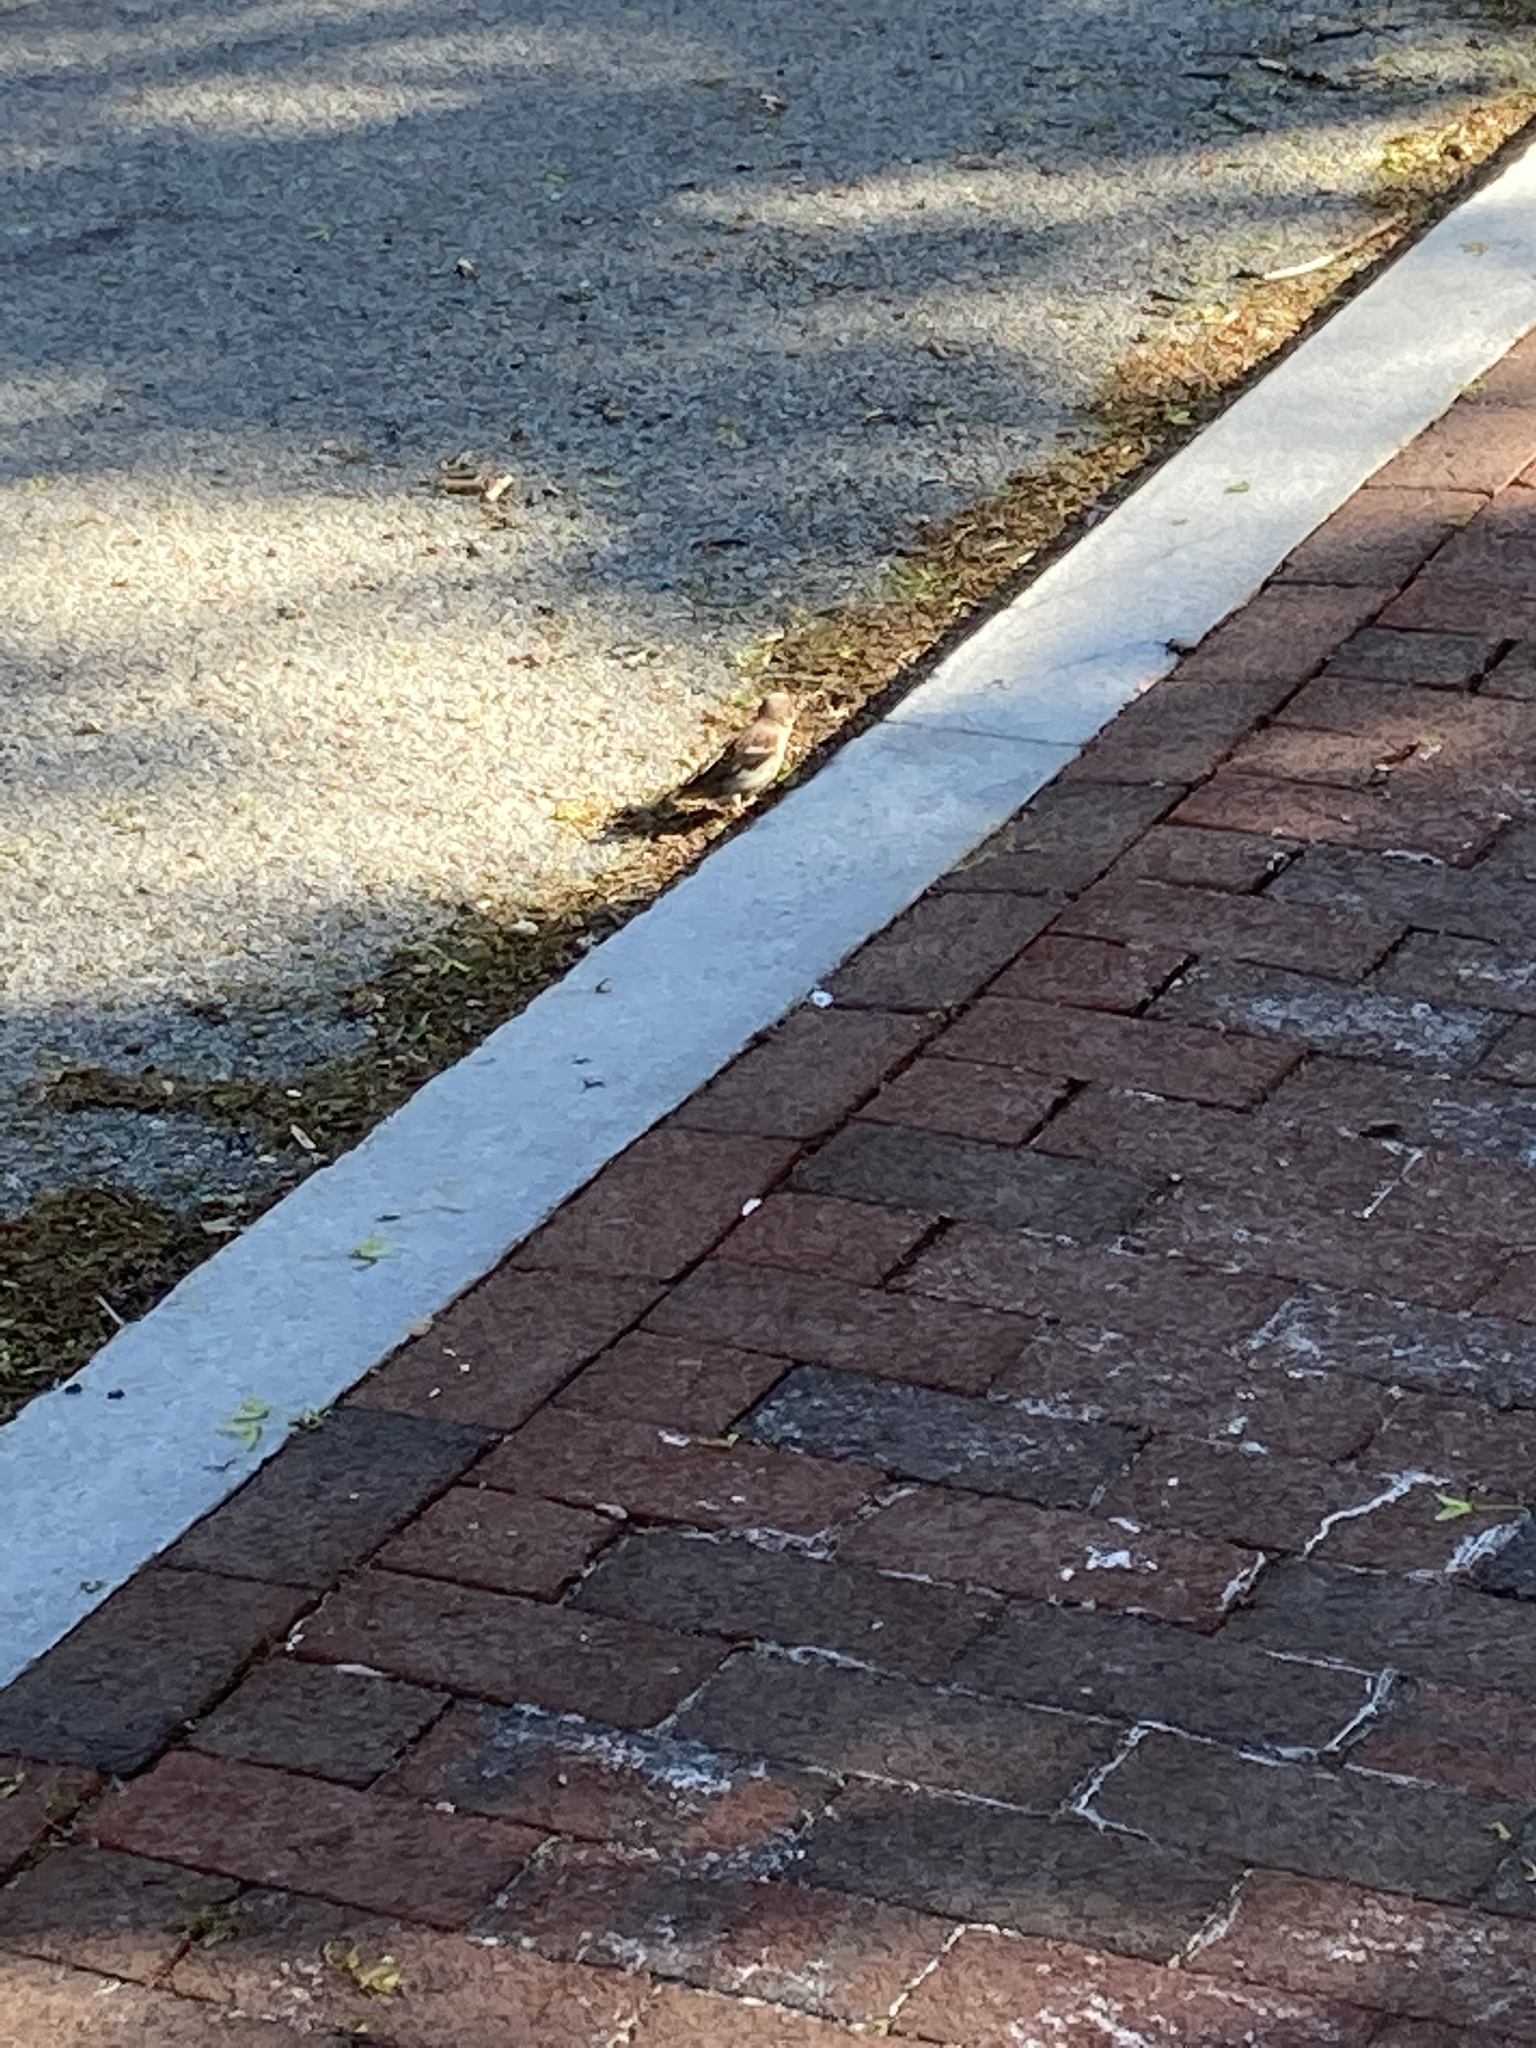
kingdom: Animalia
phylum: Chordata
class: Aves
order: Passeriformes
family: Passeridae
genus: Passer
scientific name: Passer domesticus
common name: House sparrow
